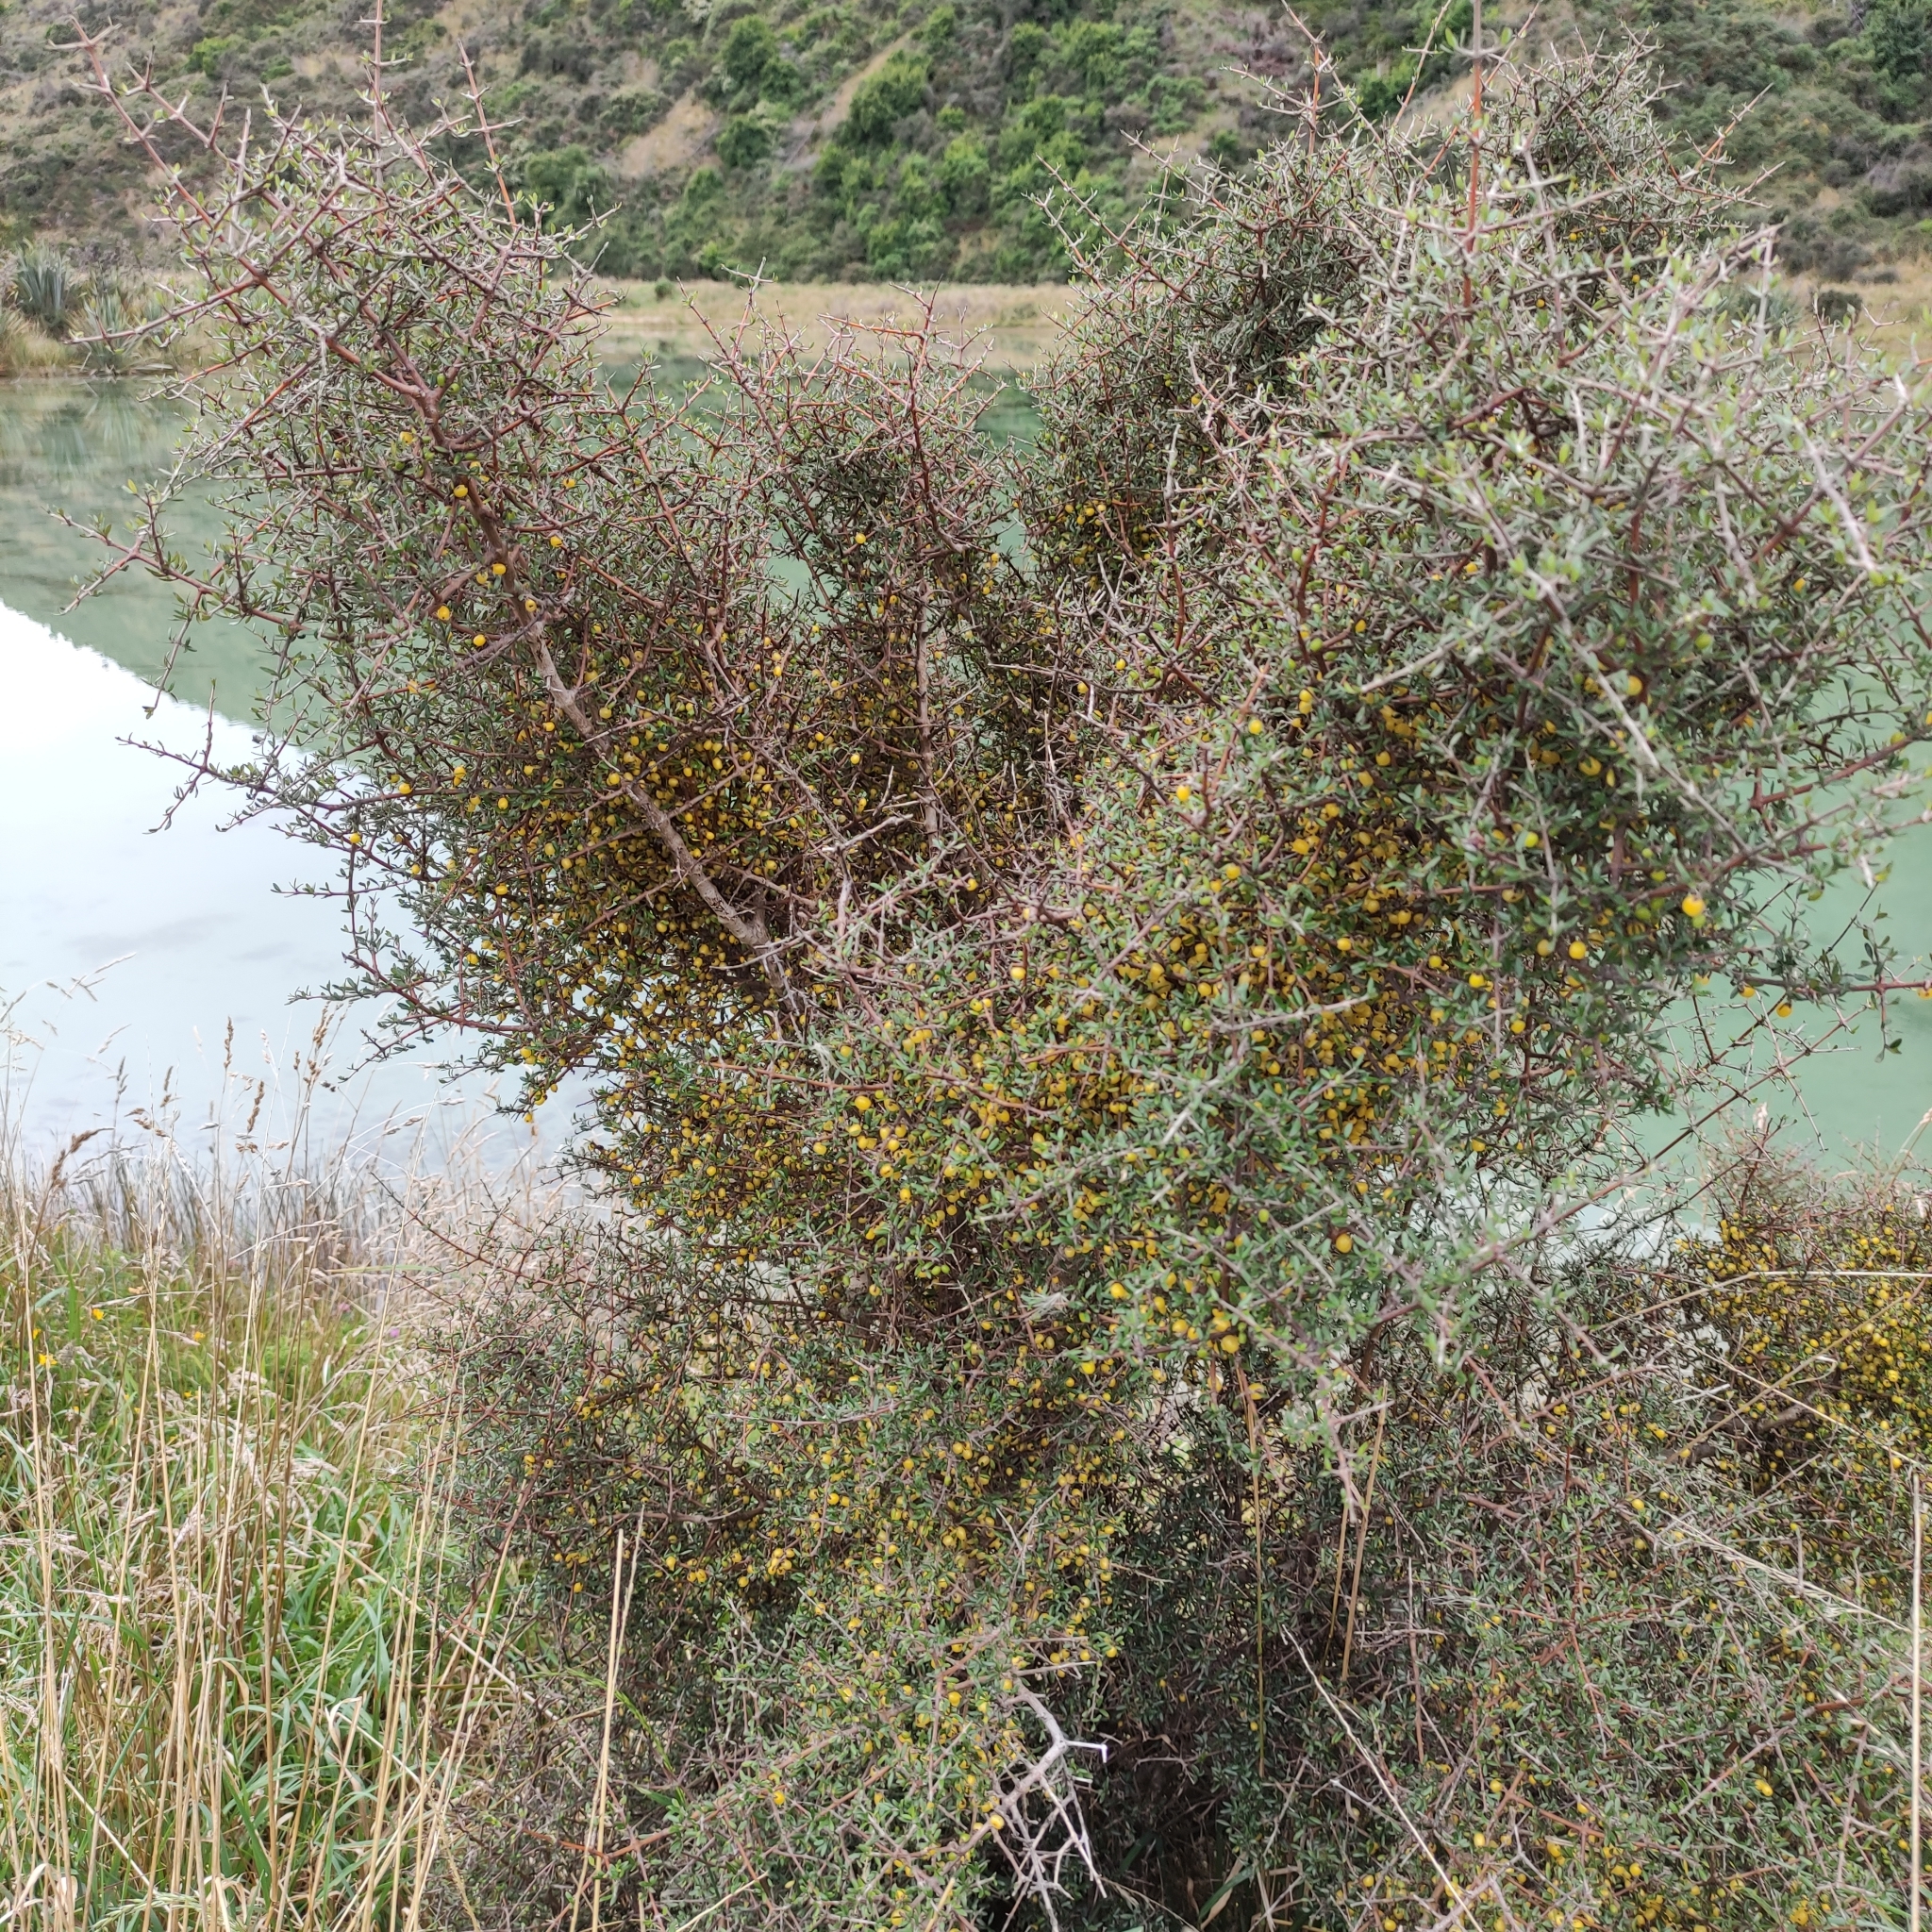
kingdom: Plantae
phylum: Tracheophyta
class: Magnoliopsida
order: Gentianales
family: Rubiaceae
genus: Coprosma
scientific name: Coprosma propinqua
